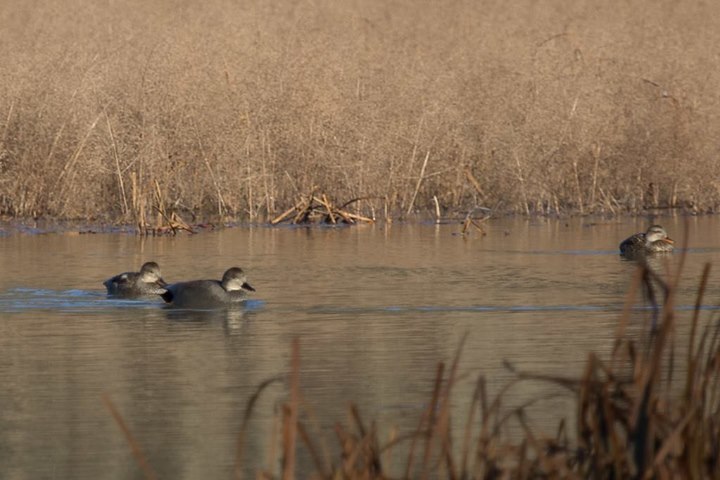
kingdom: Animalia
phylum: Chordata
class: Aves
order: Anseriformes
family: Anatidae
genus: Mareca
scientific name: Mareca strepera
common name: Gadwall
